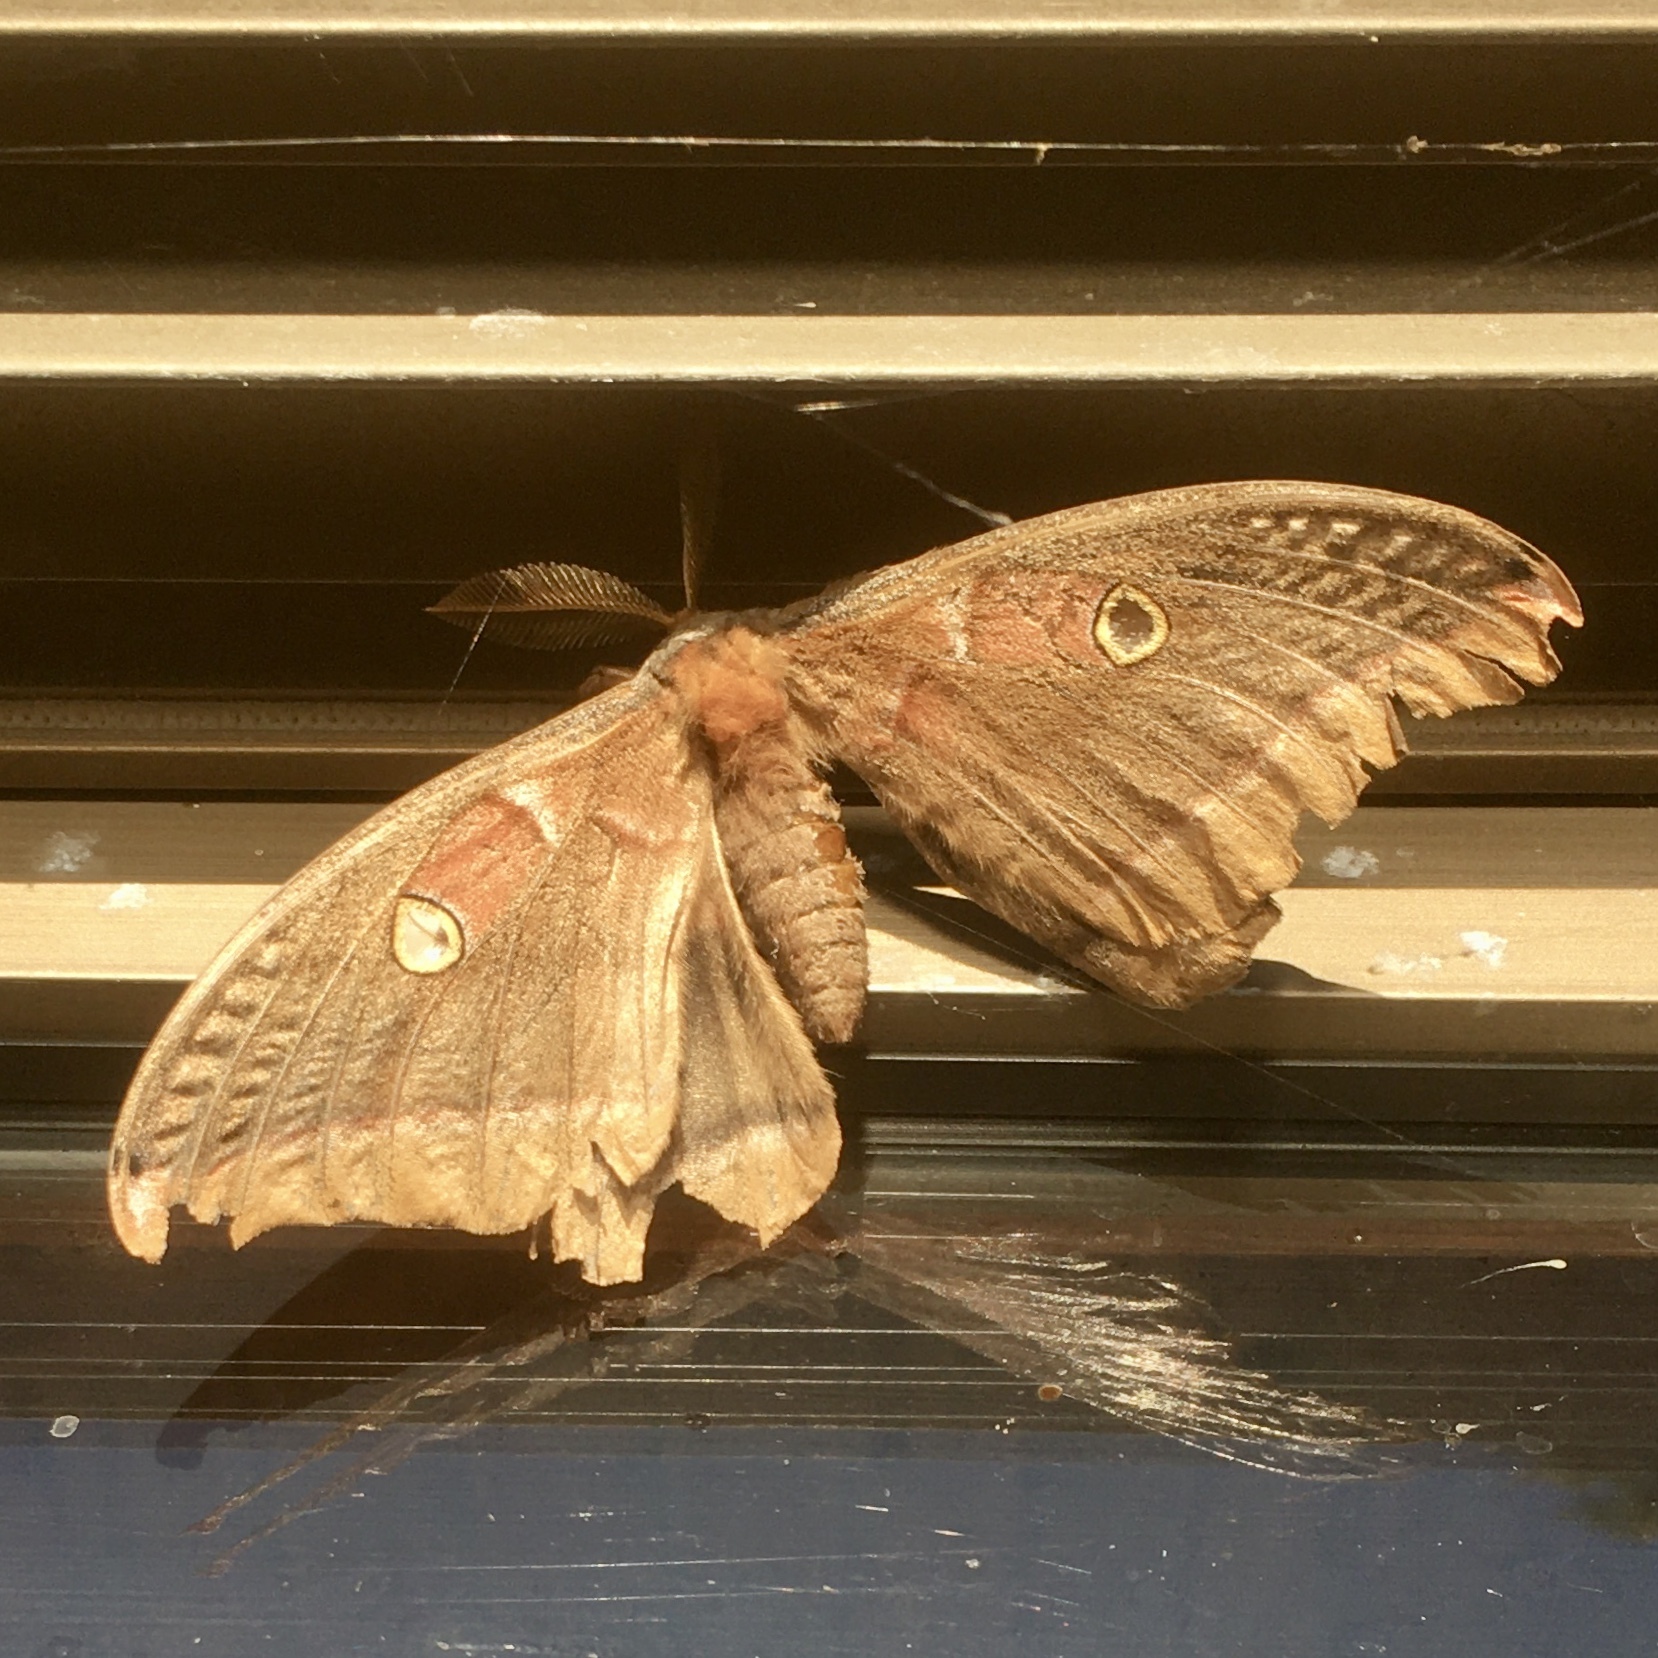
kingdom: Animalia
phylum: Arthropoda
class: Insecta
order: Lepidoptera
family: Saturniidae
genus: Antheraea
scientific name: Antheraea polyphemus
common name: Polyphemus moth
